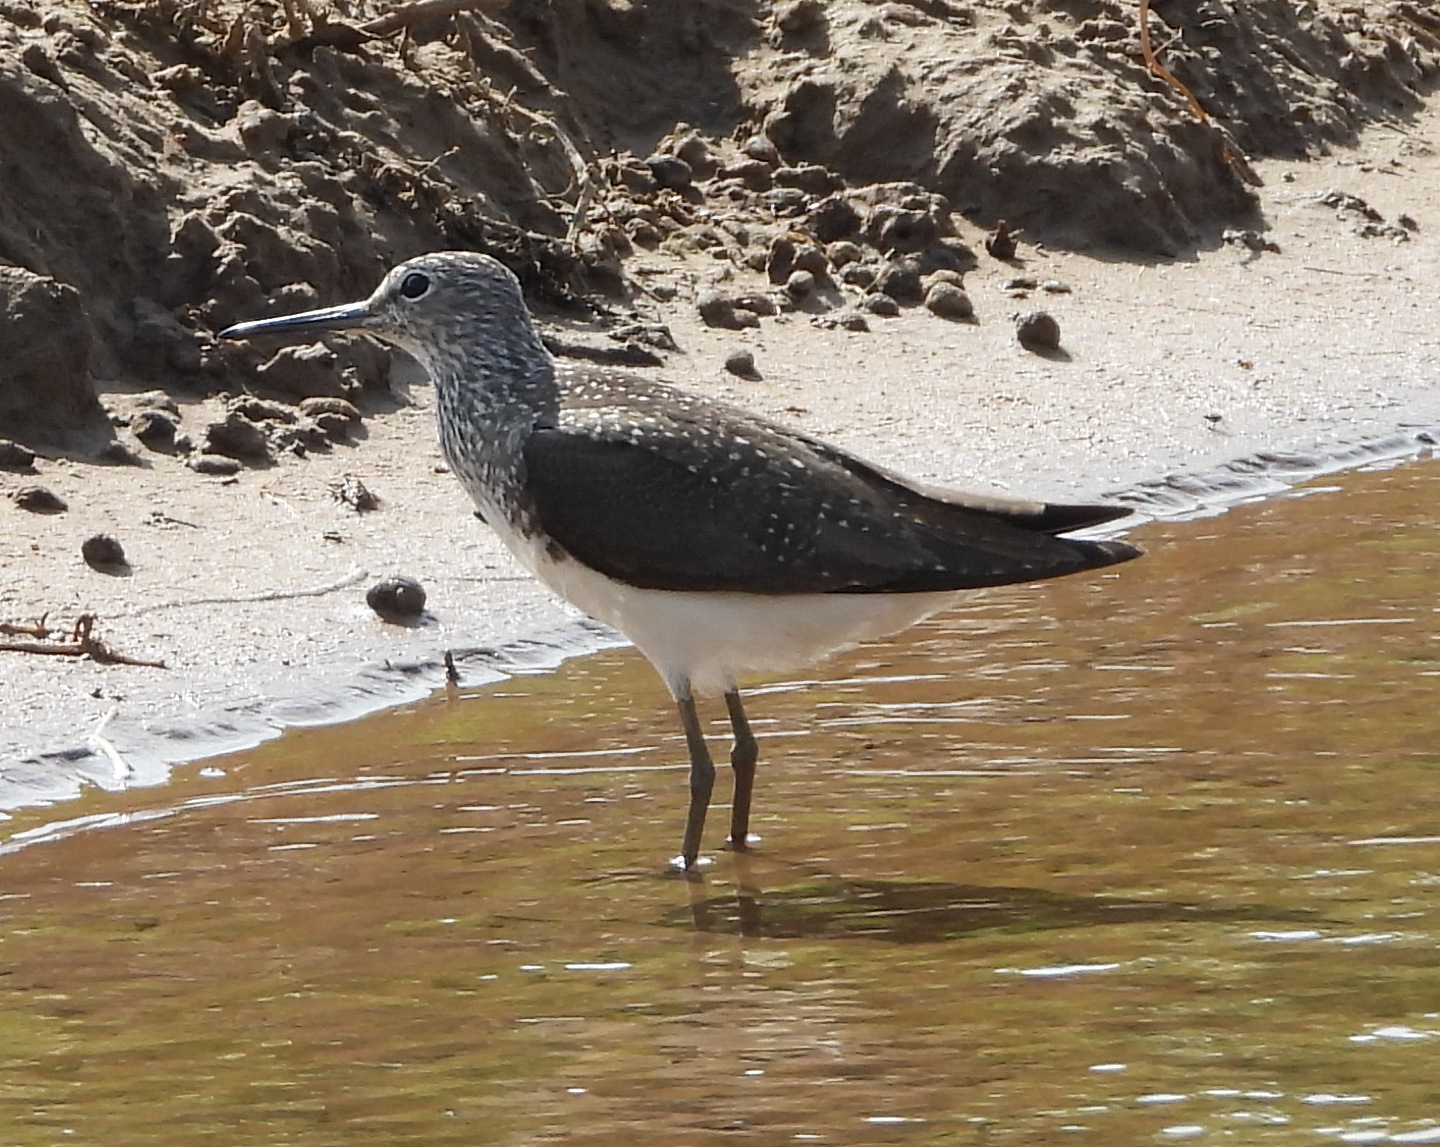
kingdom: Animalia
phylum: Chordata
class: Aves
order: Charadriiformes
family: Scolopacidae
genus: Tringa
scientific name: Tringa ochropus
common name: Green sandpiper
